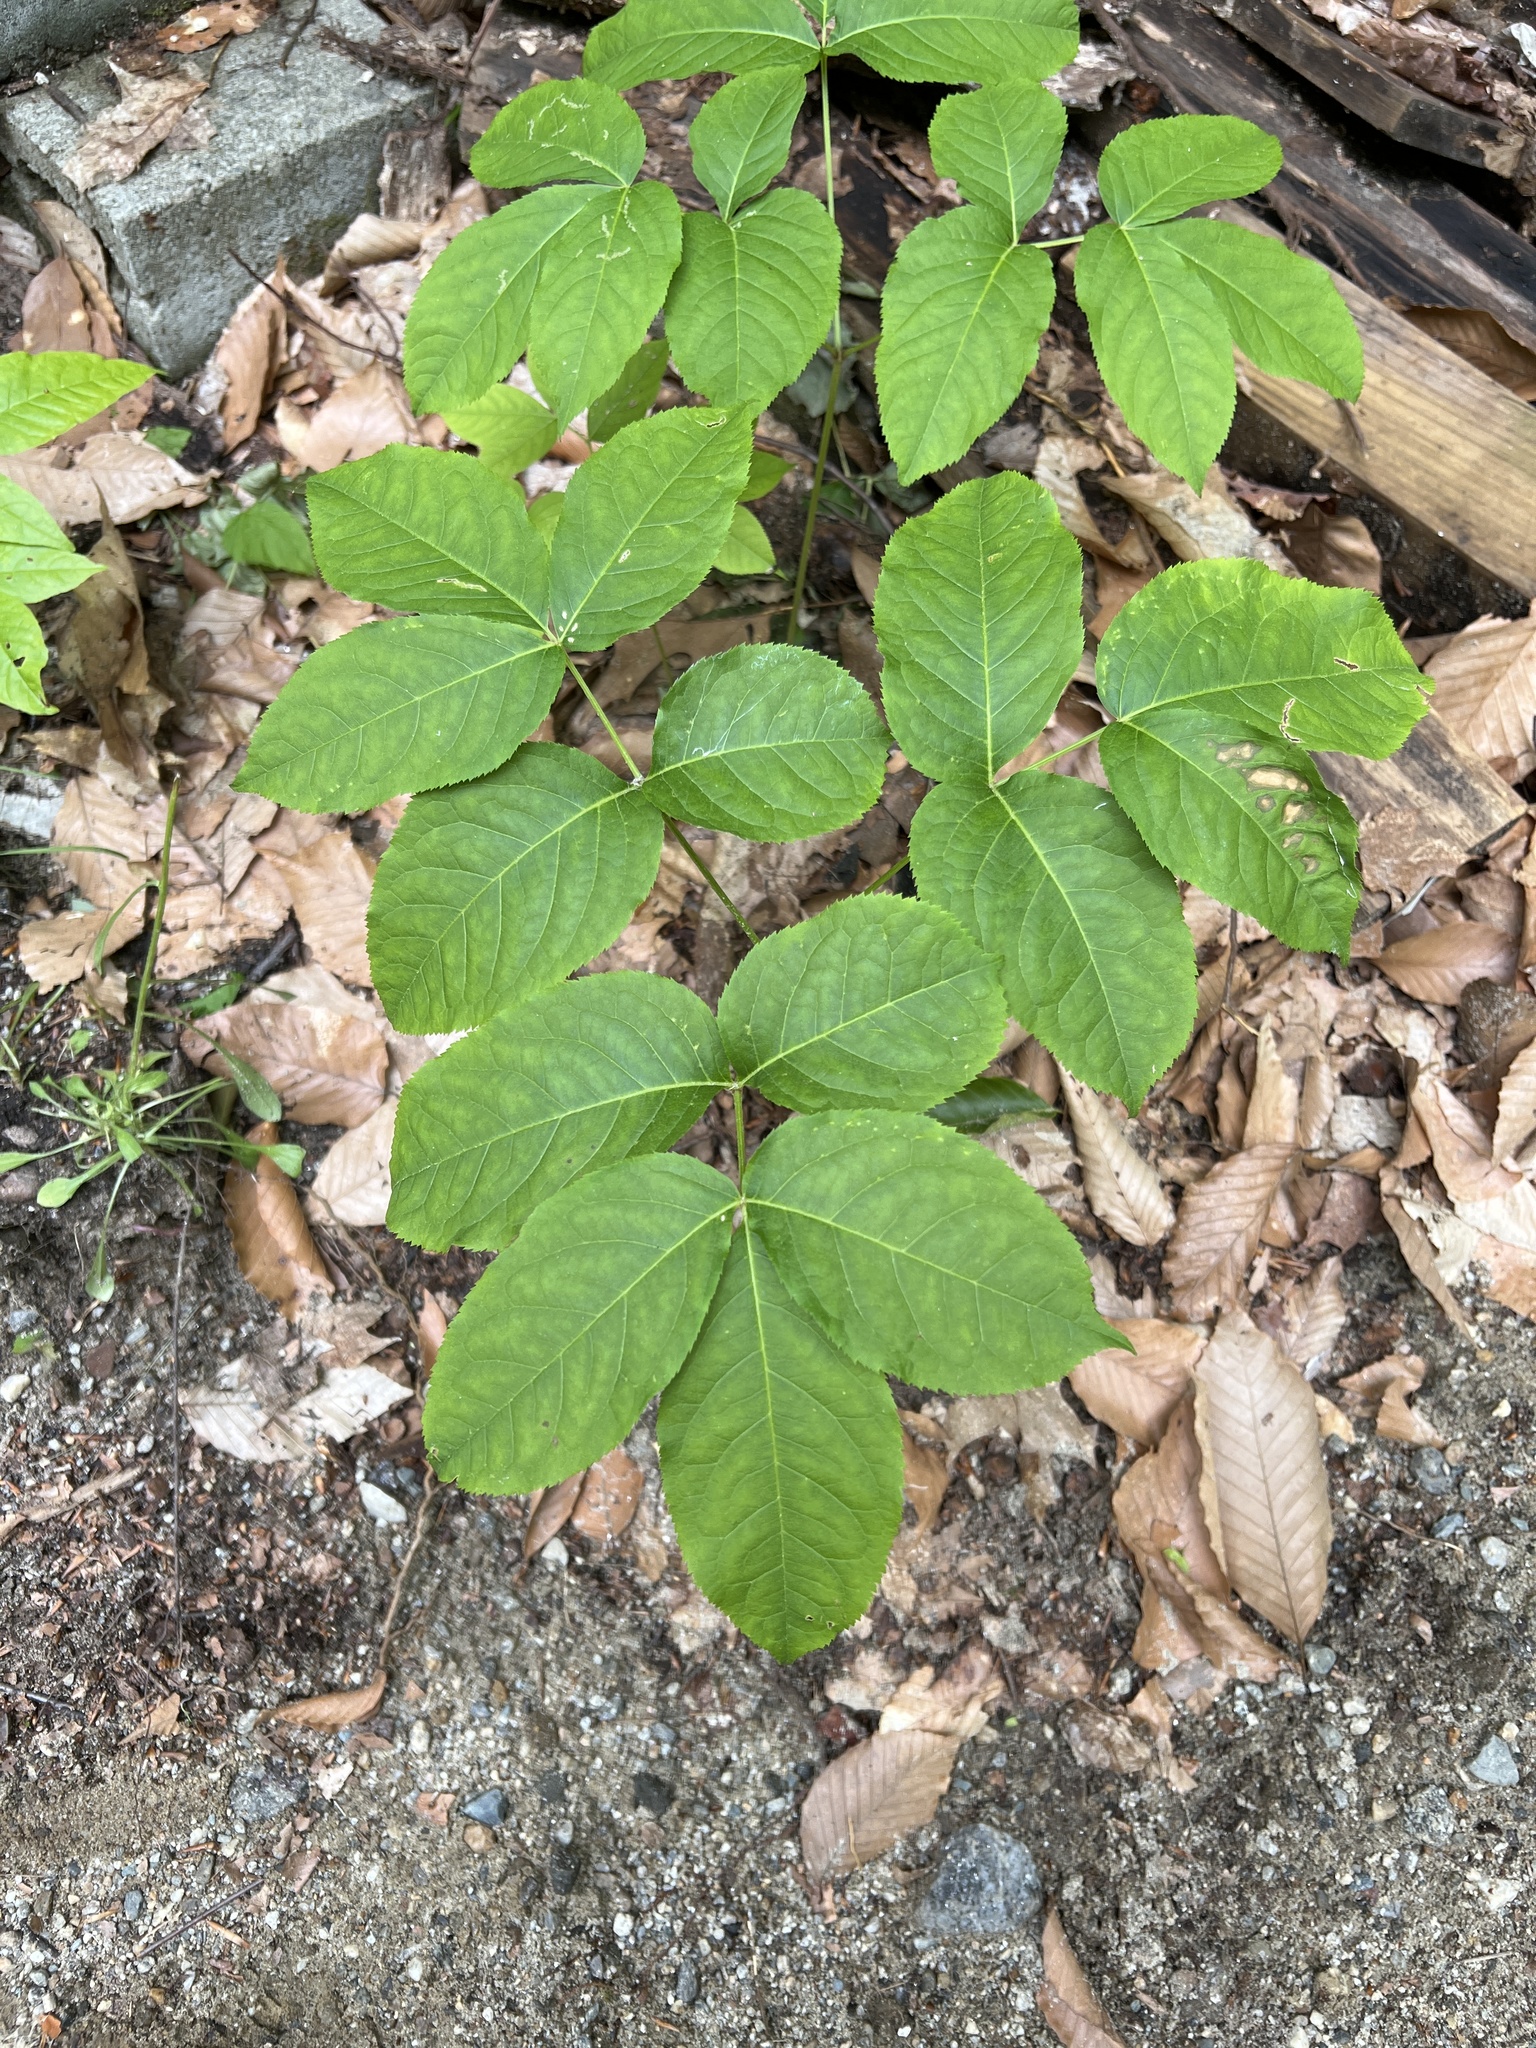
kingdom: Plantae
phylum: Tracheophyta
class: Magnoliopsida
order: Apiales
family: Araliaceae
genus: Aralia
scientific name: Aralia nudicaulis
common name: Wild sarsaparilla
